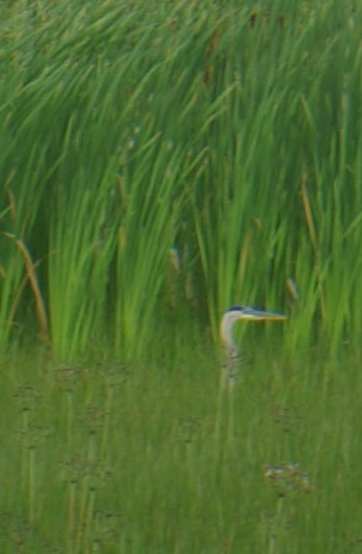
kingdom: Animalia
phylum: Chordata
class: Aves
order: Pelecaniformes
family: Ardeidae
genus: Ardea
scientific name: Ardea herodias
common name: Great blue heron
